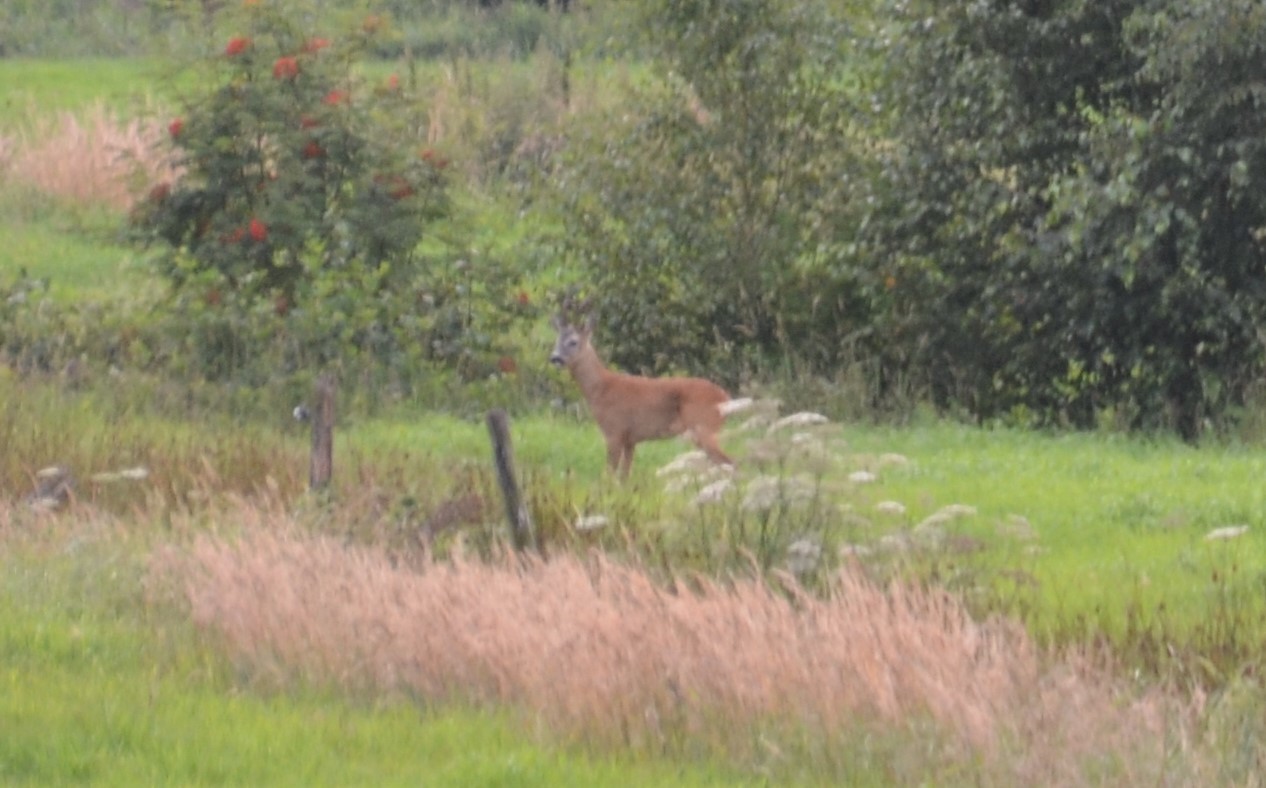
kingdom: Animalia
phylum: Chordata
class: Mammalia
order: Artiodactyla
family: Cervidae
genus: Capreolus
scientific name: Capreolus capreolus
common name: Western roe deer
